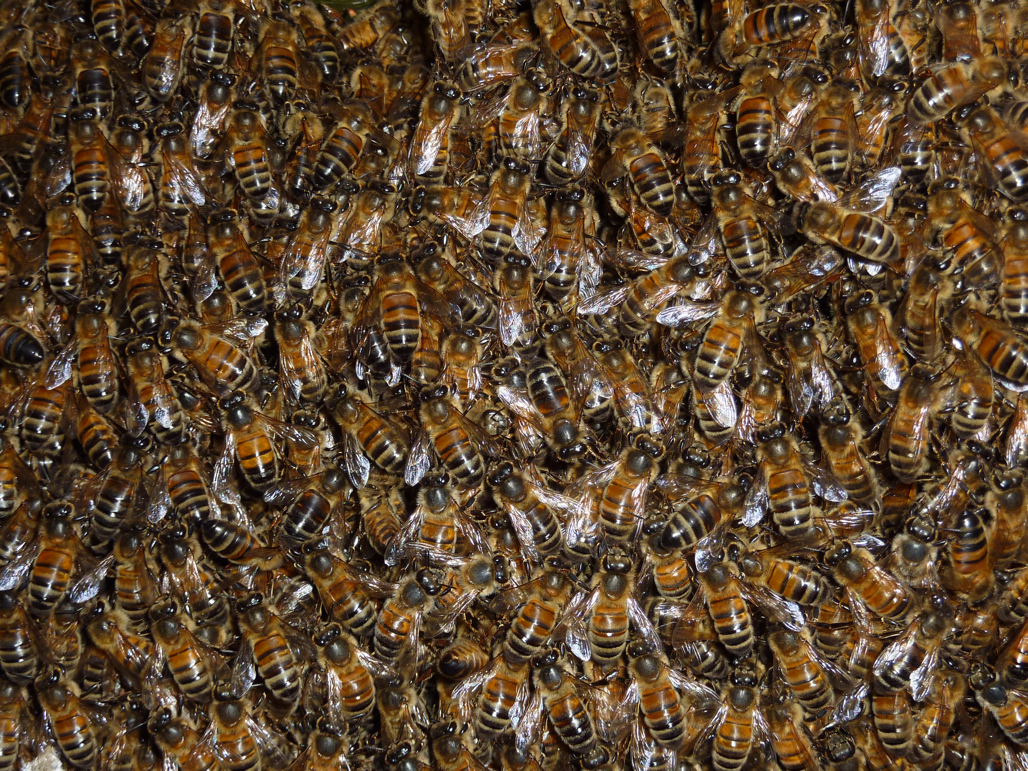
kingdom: Animalia
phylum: Arthropoda
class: Insecta
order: Hymenoptera
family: Apidae
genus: Apis
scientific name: Apis mellifera
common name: Honey bee
